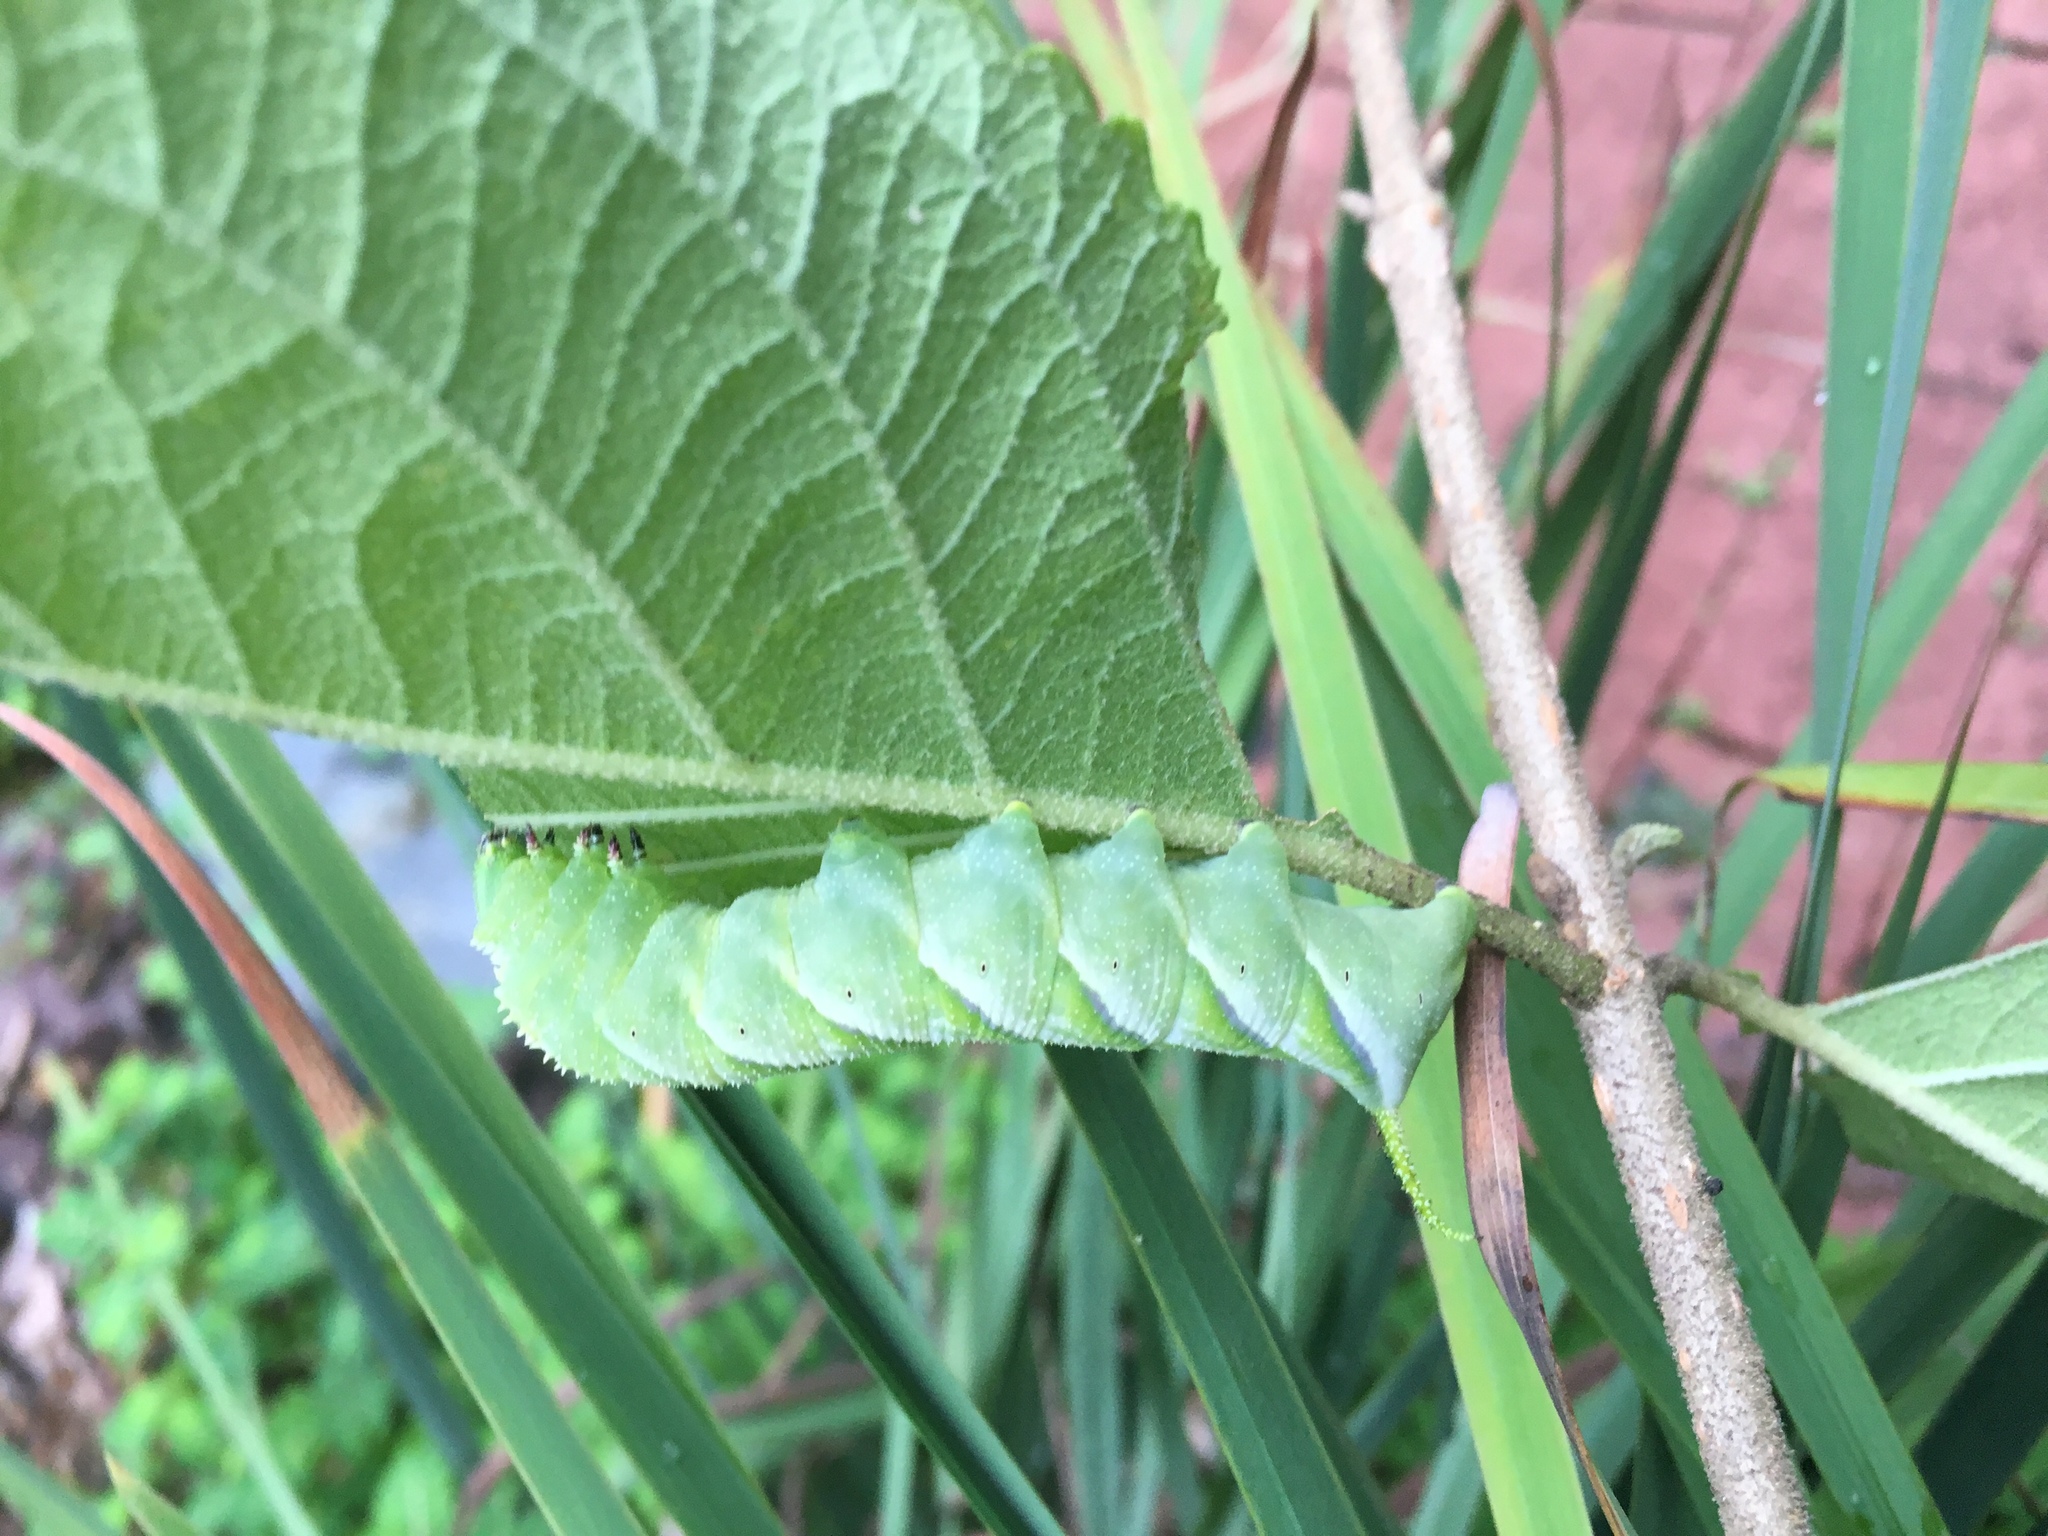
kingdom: Animalia
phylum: Arthropoda
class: Insecta
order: Lepidoptera
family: Sphingidae
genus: Manduca
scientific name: Manduca rustica
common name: Rustic sphinx
